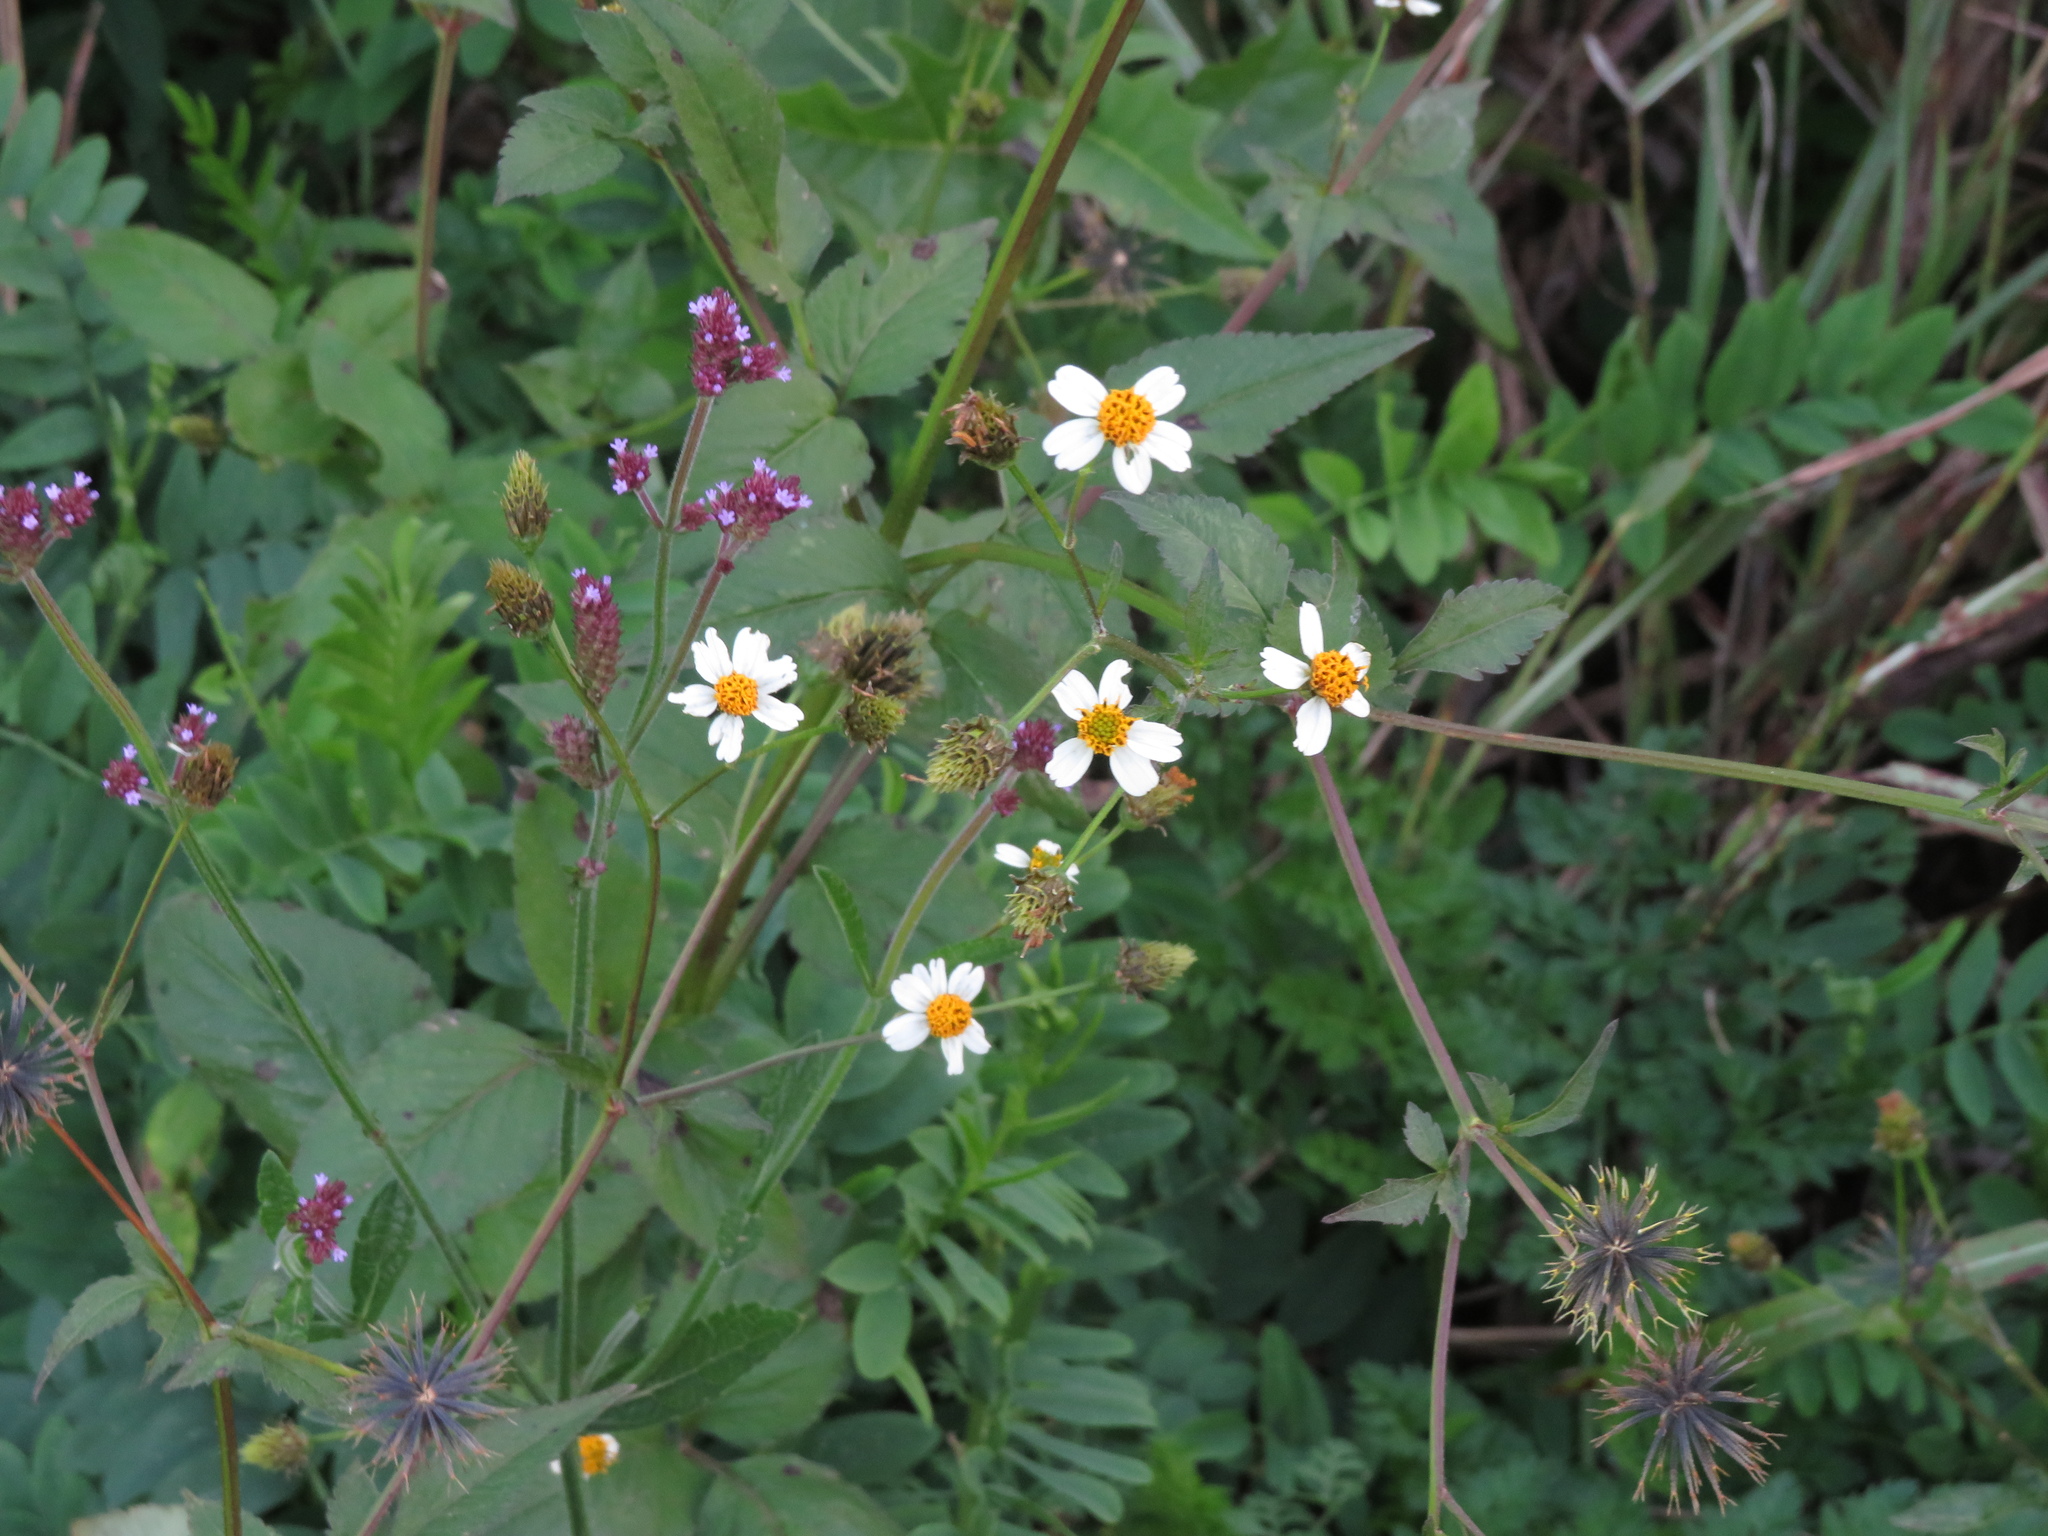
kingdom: Plantae
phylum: Tracheophyta
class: Magnoliopsida
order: Asterales
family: Asteraceae
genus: Bidens
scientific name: Bidens pilosa
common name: Black-jack
